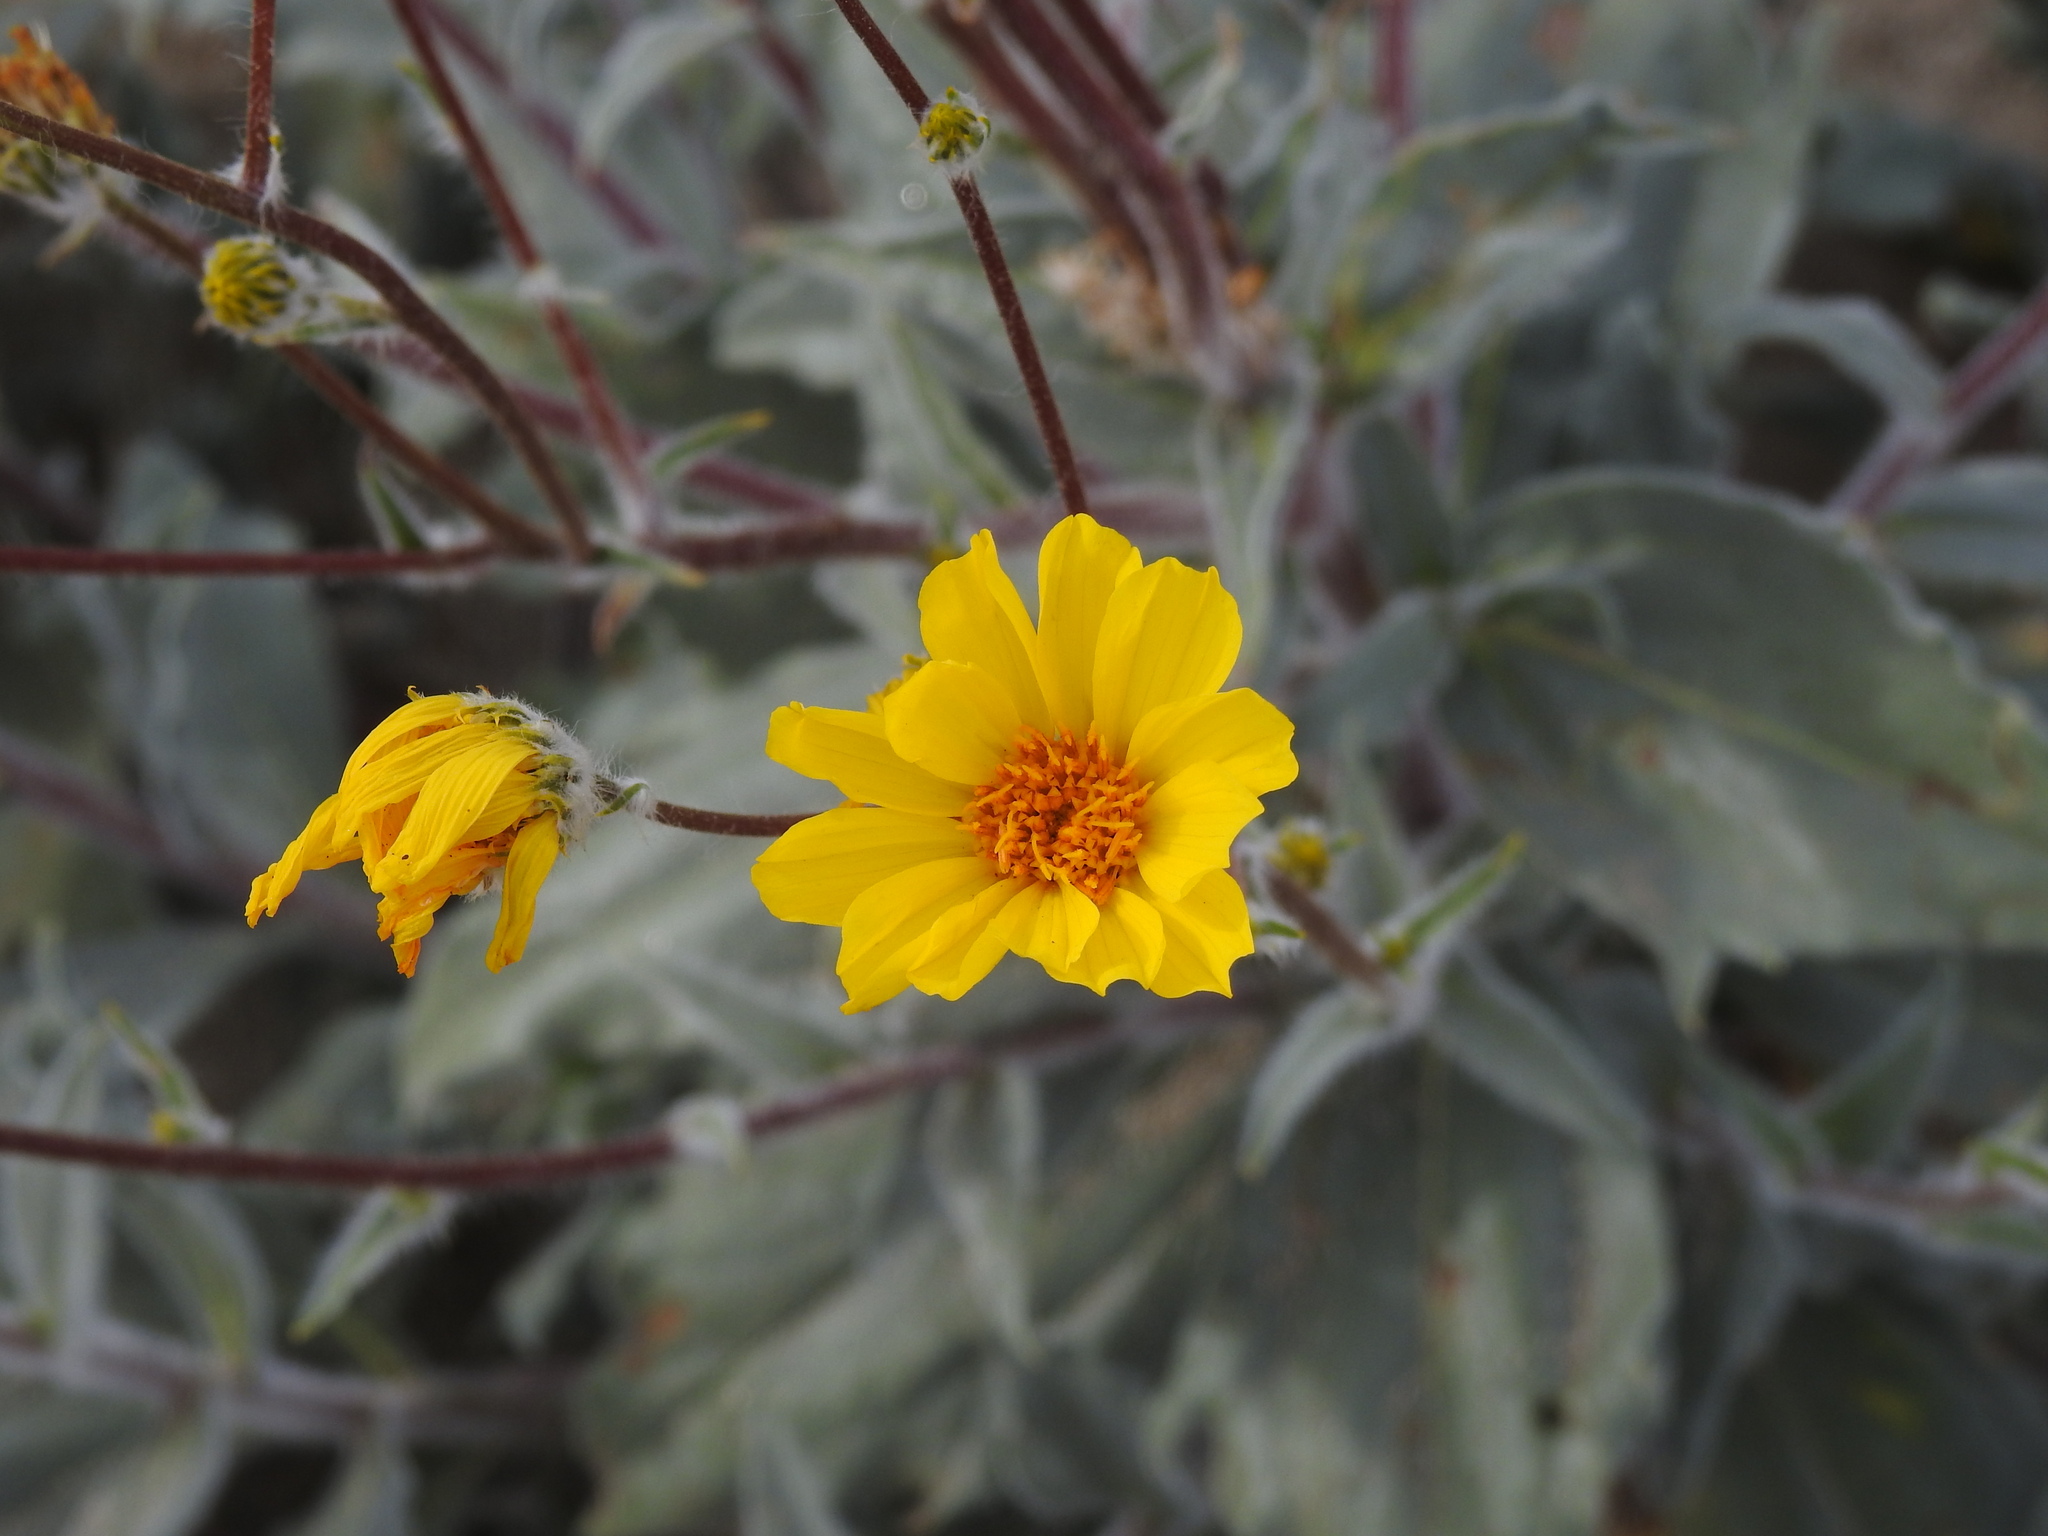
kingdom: Plantae
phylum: Tracheophyta
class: Magnoliopsida
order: Asterales
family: Asteraceae
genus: Geraea
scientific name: Geraea canescens
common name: Desert-gold
